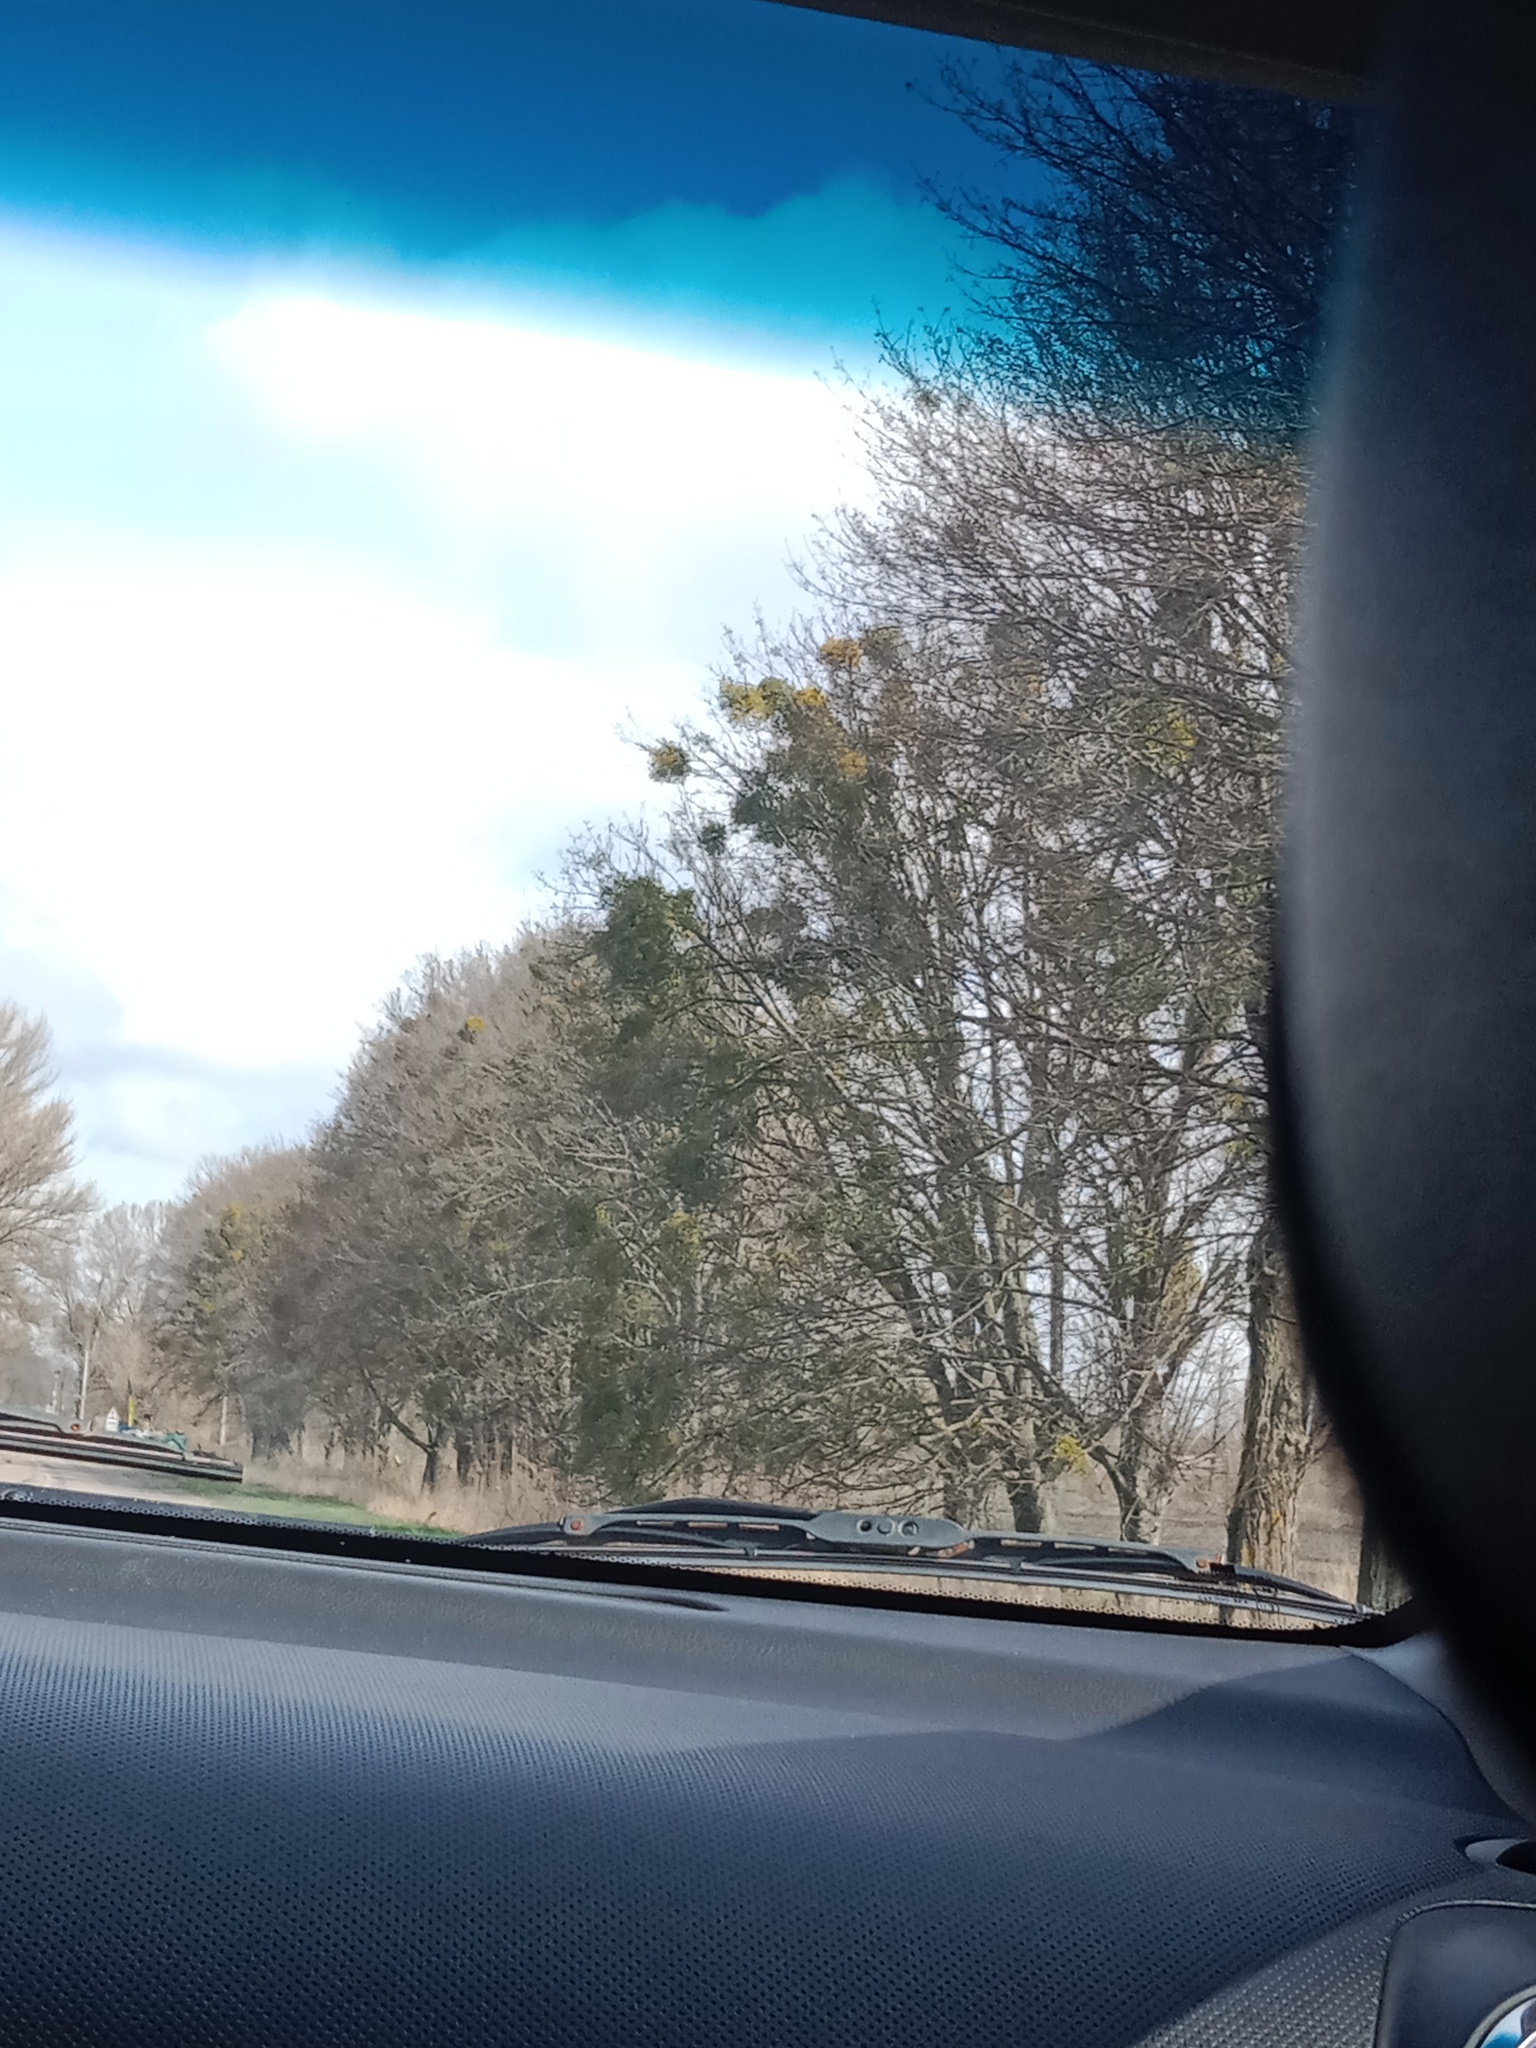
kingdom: Plantae
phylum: Tracheophyta
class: Magnoliopsida
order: Santalales
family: Viscaceae
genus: Viscum
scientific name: Viscum album
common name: Mistletoe
